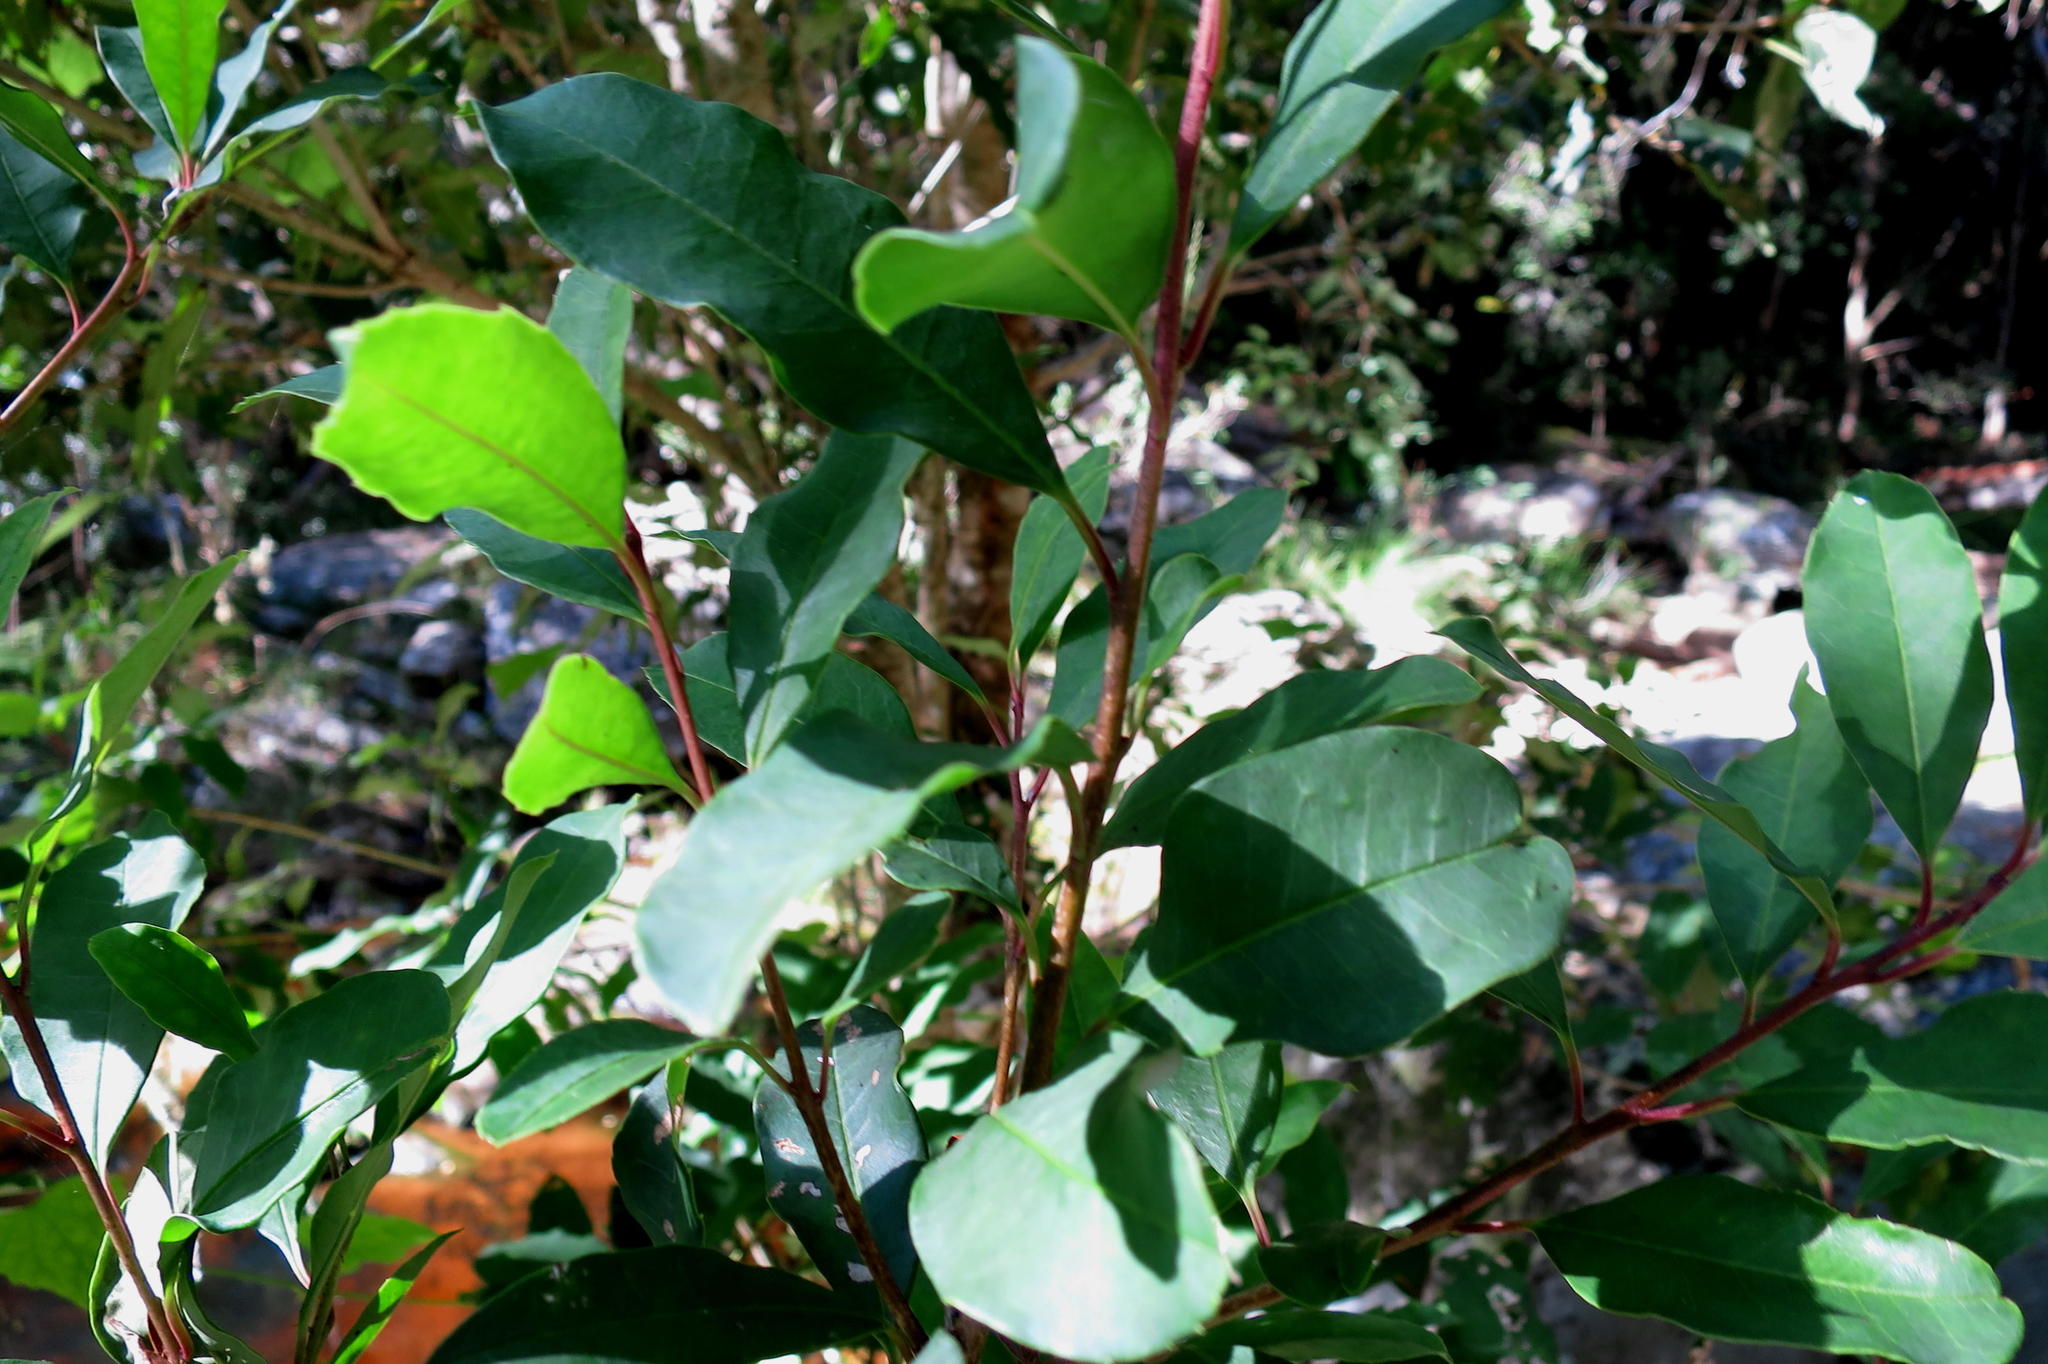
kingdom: Plantae
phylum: Tracheophyta
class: Magnoliopsida
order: Aquifoliales
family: Aquifoliaceae
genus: Ilex
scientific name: Ilex mitis
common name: African holly
